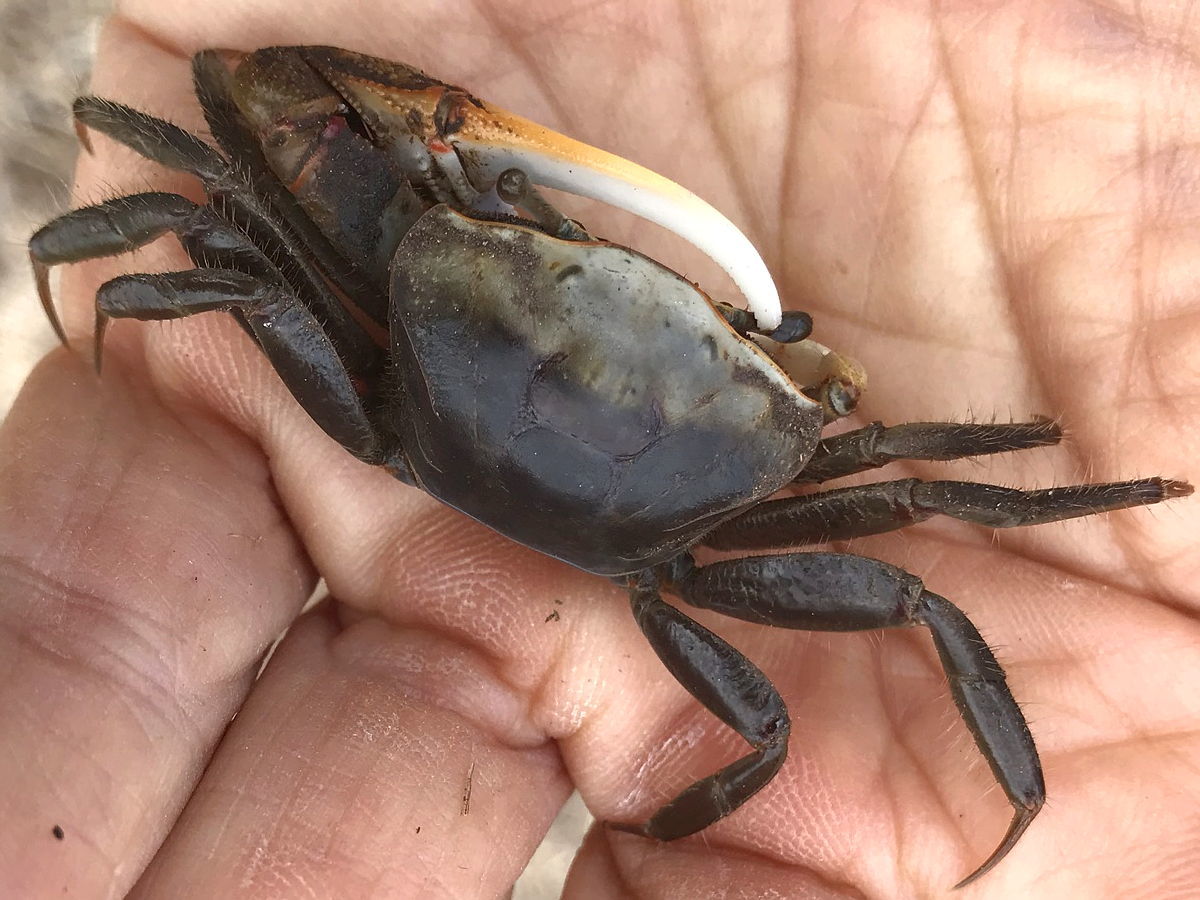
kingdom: Animalia
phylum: Arthropoda
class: Malacostraca
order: Decapoda
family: Ocypodidae
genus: Minuca
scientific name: Minuca minax
